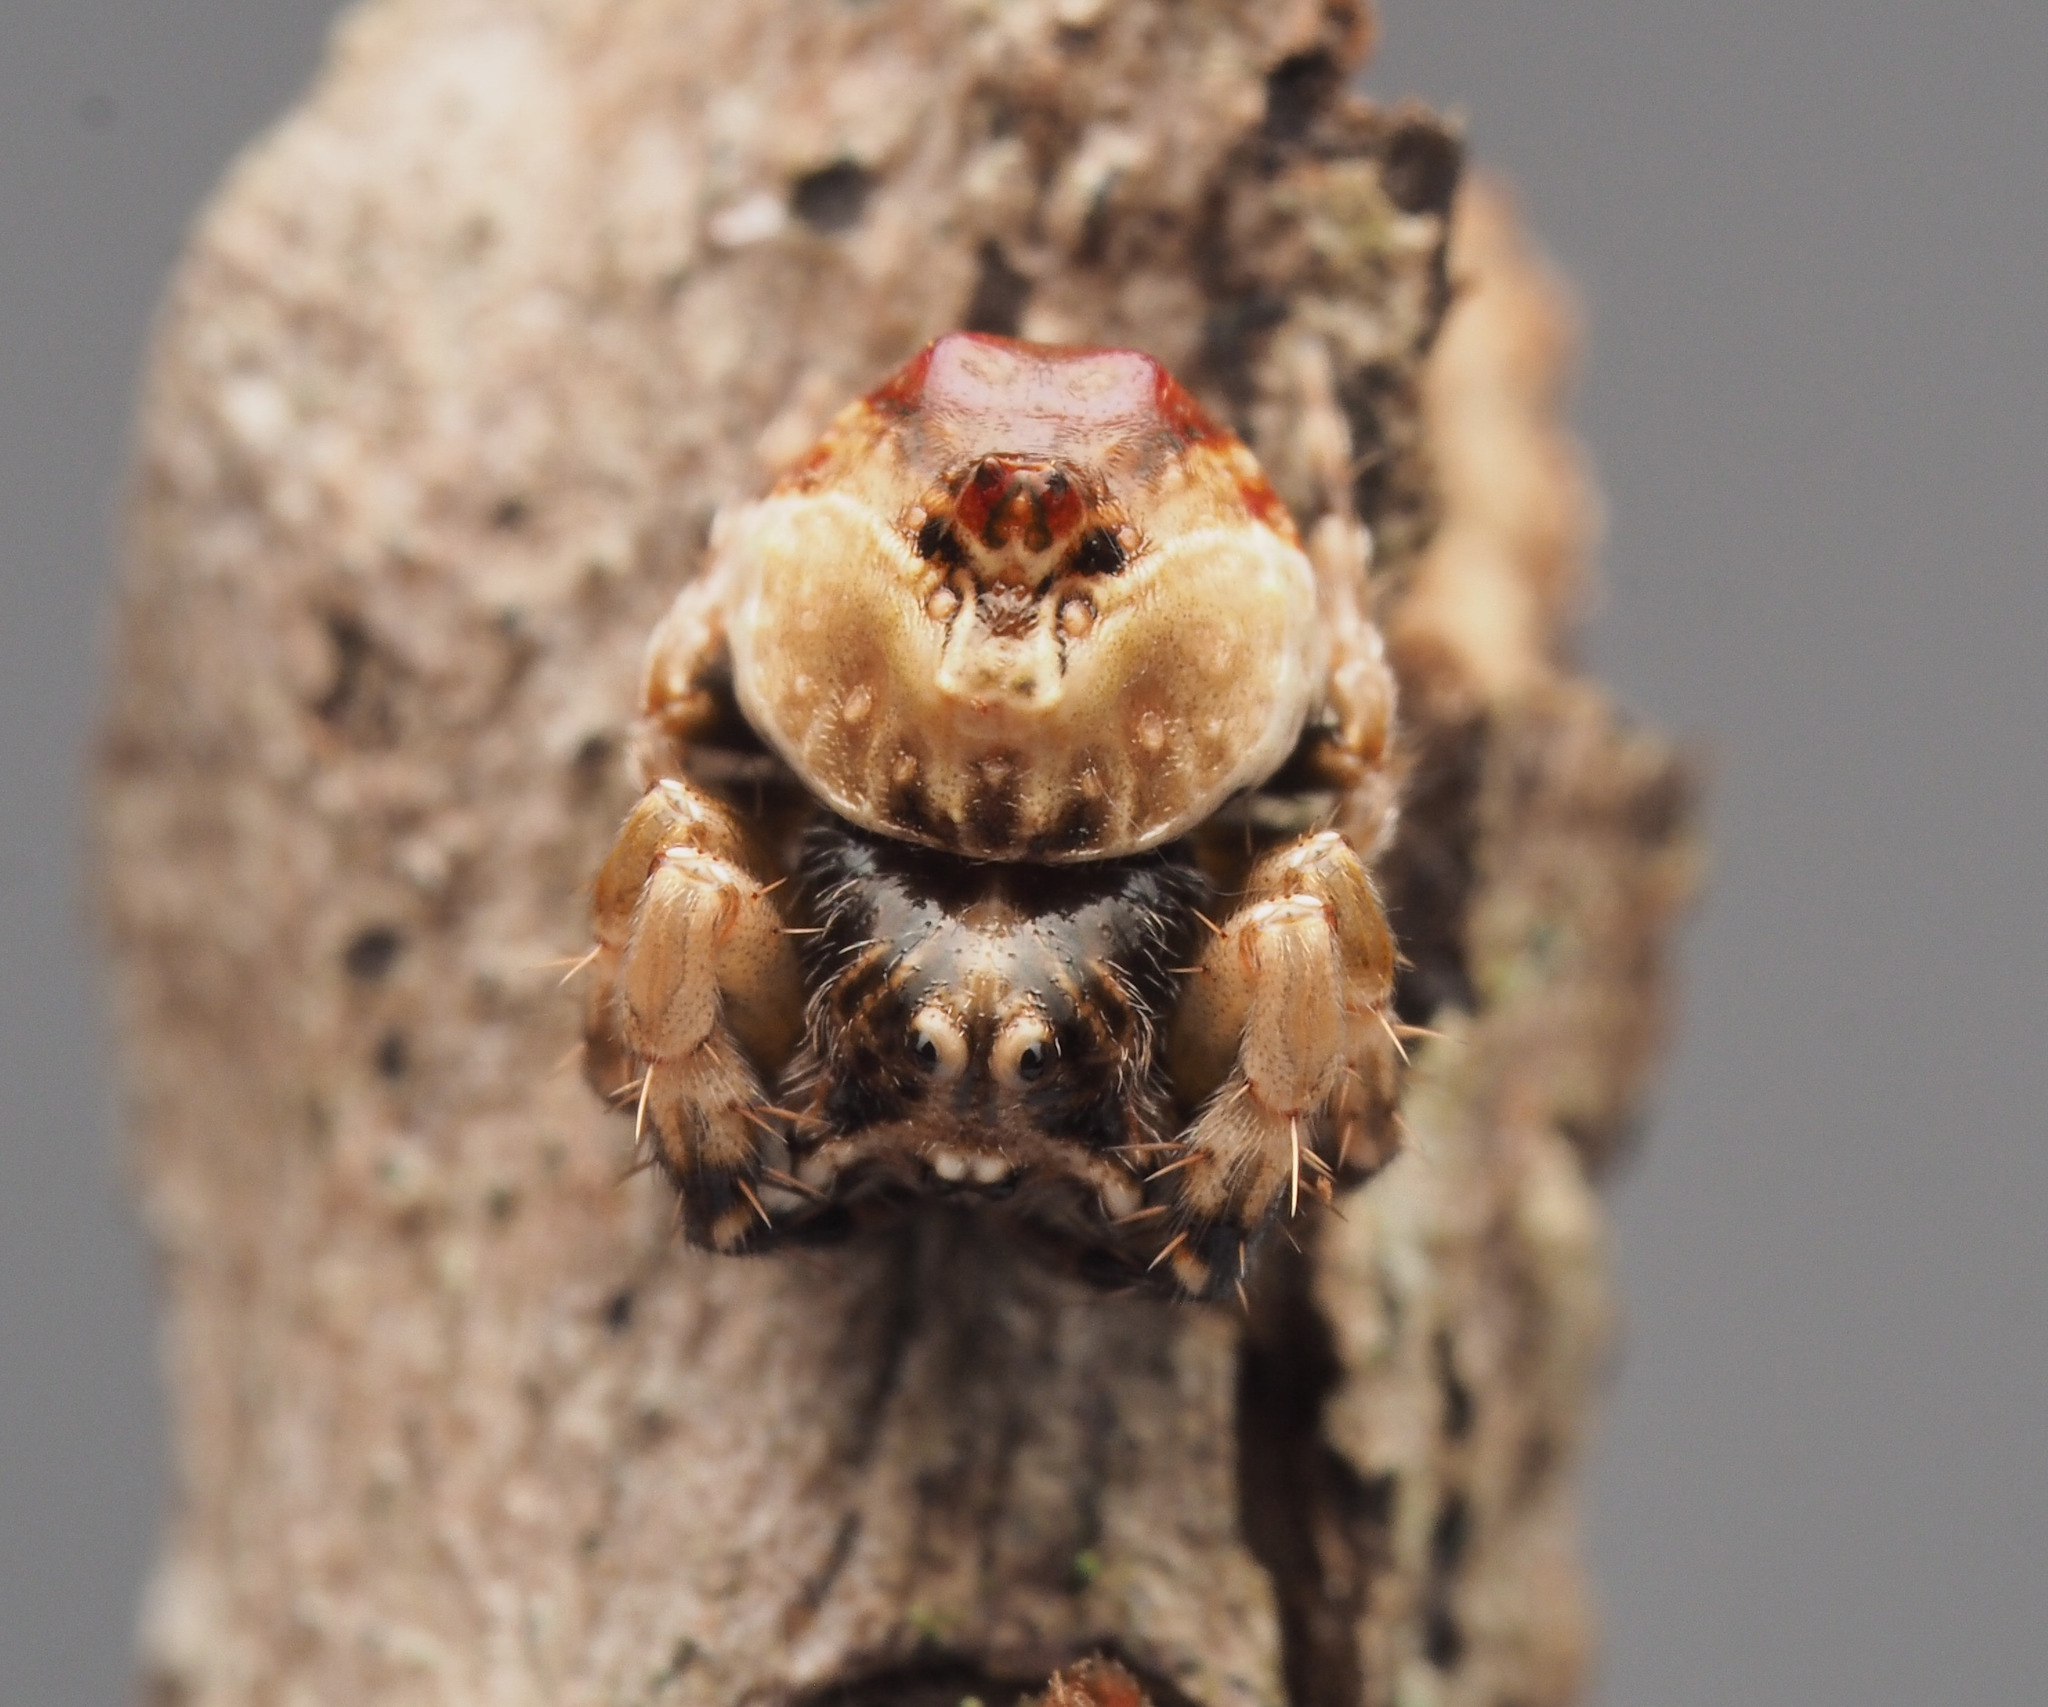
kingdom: Animalia
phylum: Arthropoda
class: Arachnida
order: Araneae
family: Arkyidae
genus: Arkys
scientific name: Arkys tuberculatus
